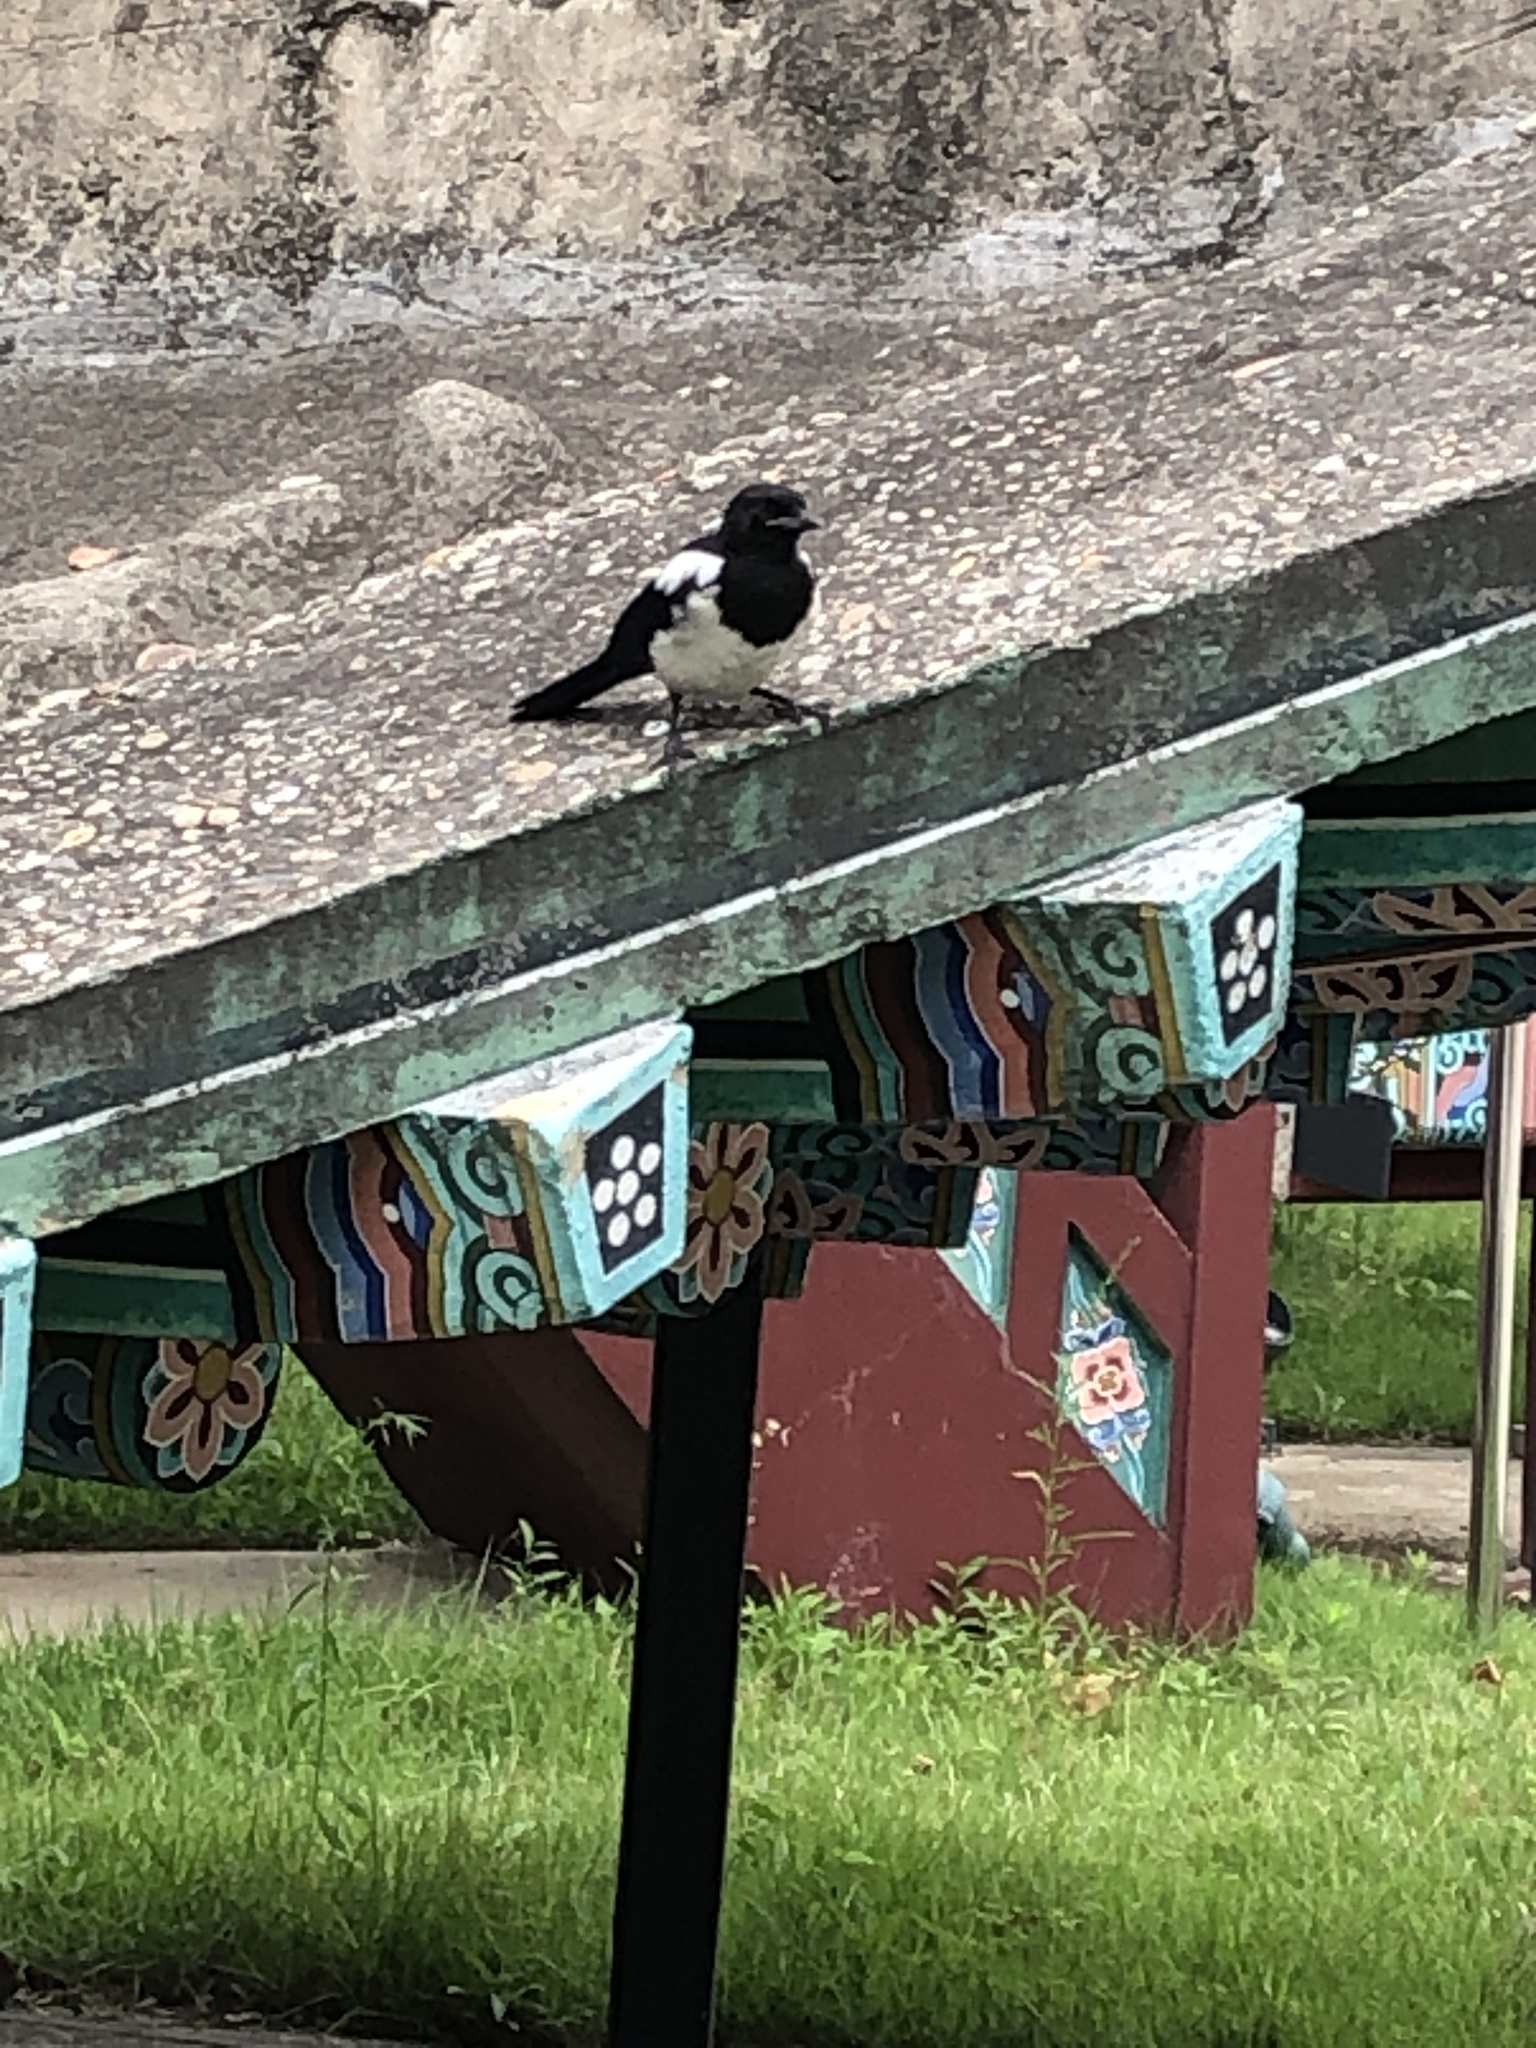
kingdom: Animalia
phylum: Chordata
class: Aves
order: Passeriformes
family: Corvidae
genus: Pica
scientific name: Pica serica
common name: Oriental magpie
